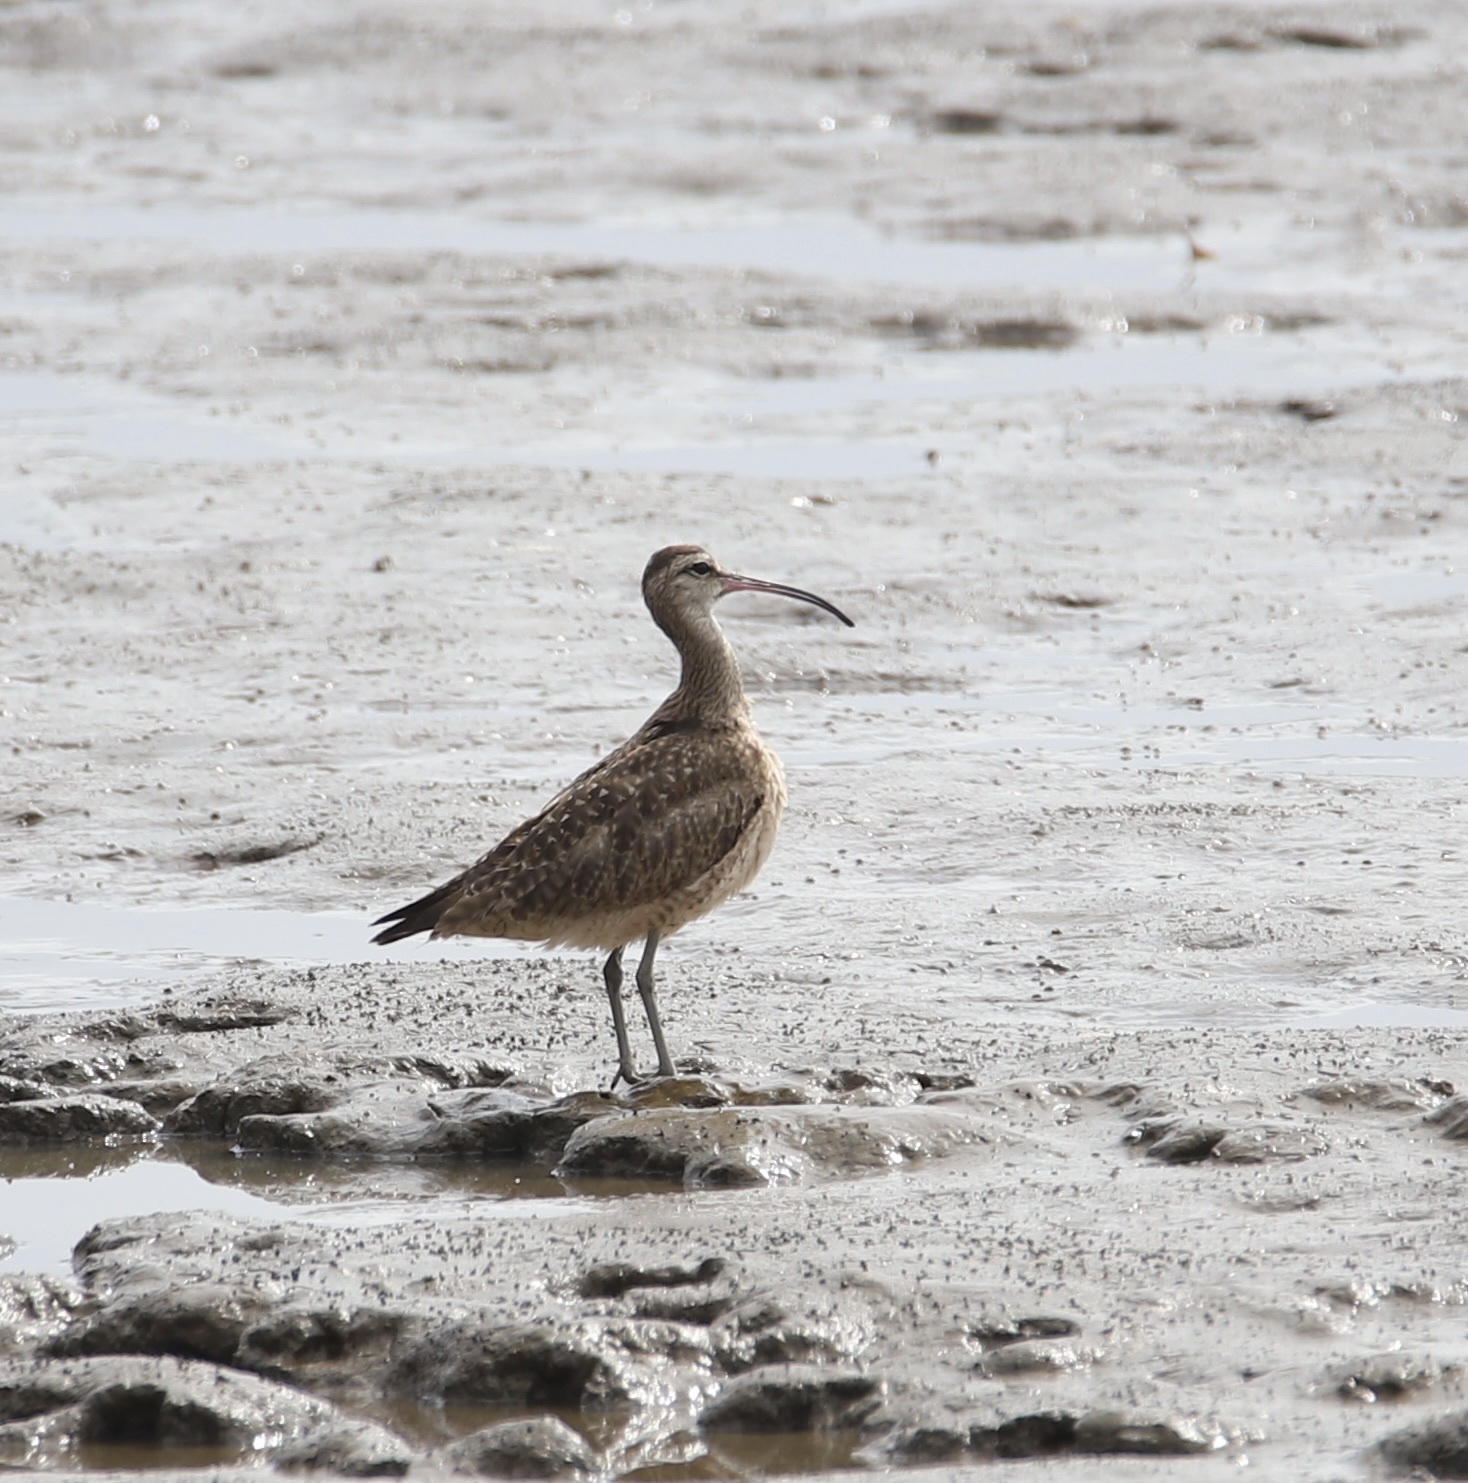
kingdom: Animalia
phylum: Chordata
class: Aves
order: Charadriiformes
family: Scolopacidae
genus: Numenius
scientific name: Numenius phaeopus
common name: Whimbrel
